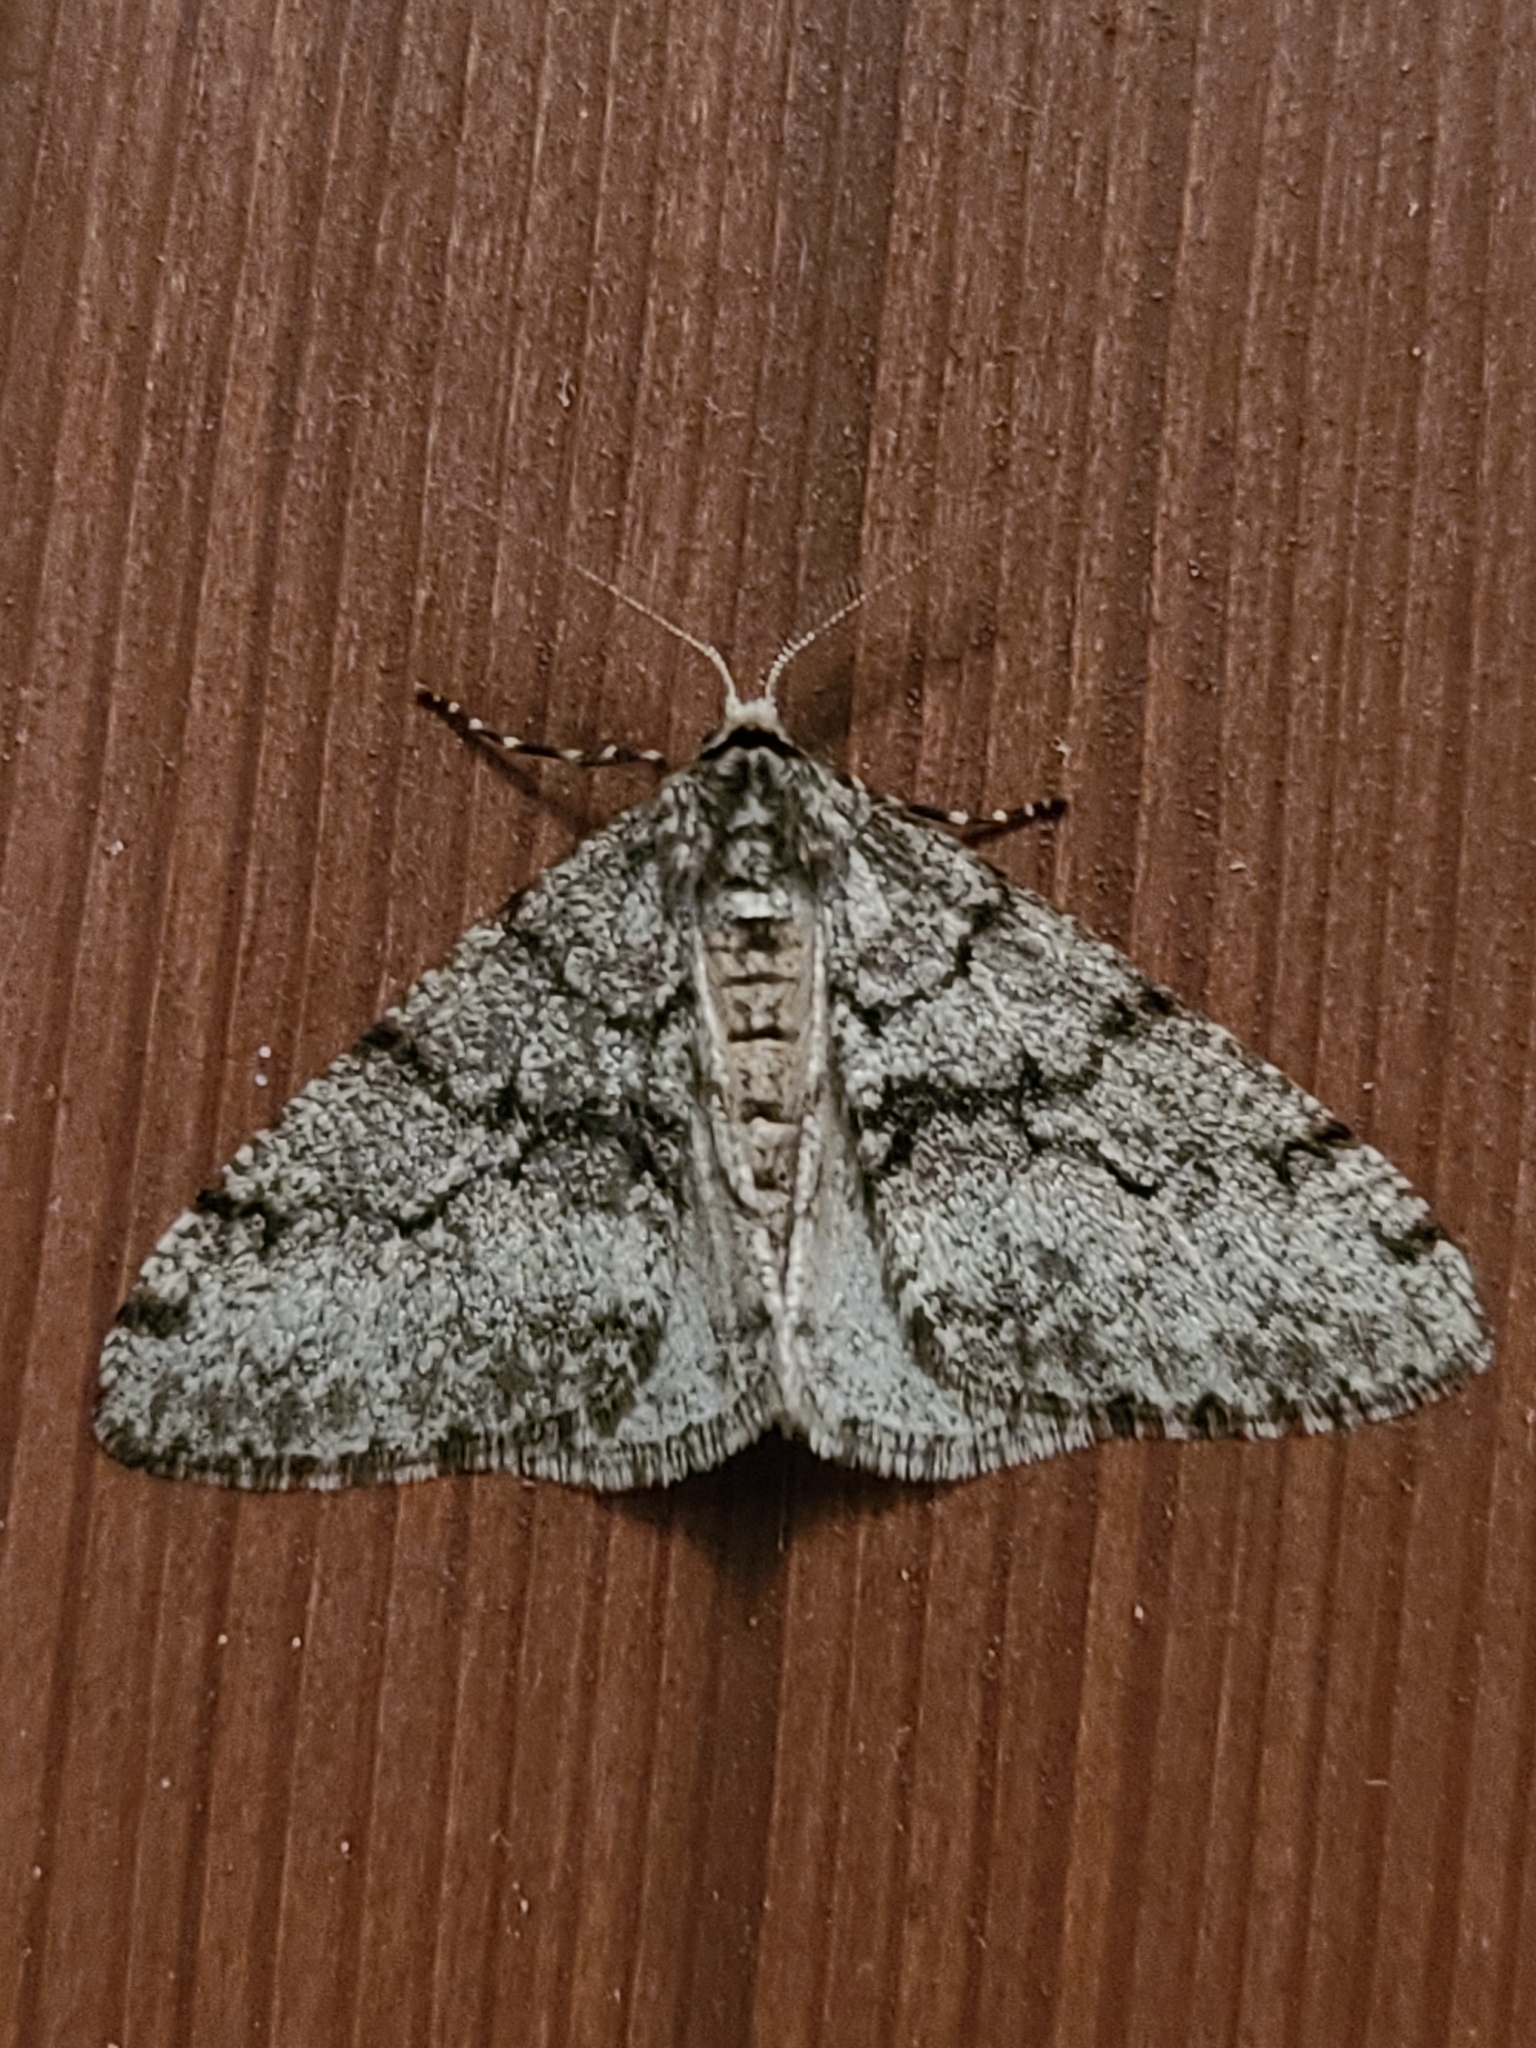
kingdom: Animalia
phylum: Arthropoda
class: Insecta
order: Lepidoptera
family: Geometridae
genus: Phigalia
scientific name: Phigalia strigataria
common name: Small phigalia
